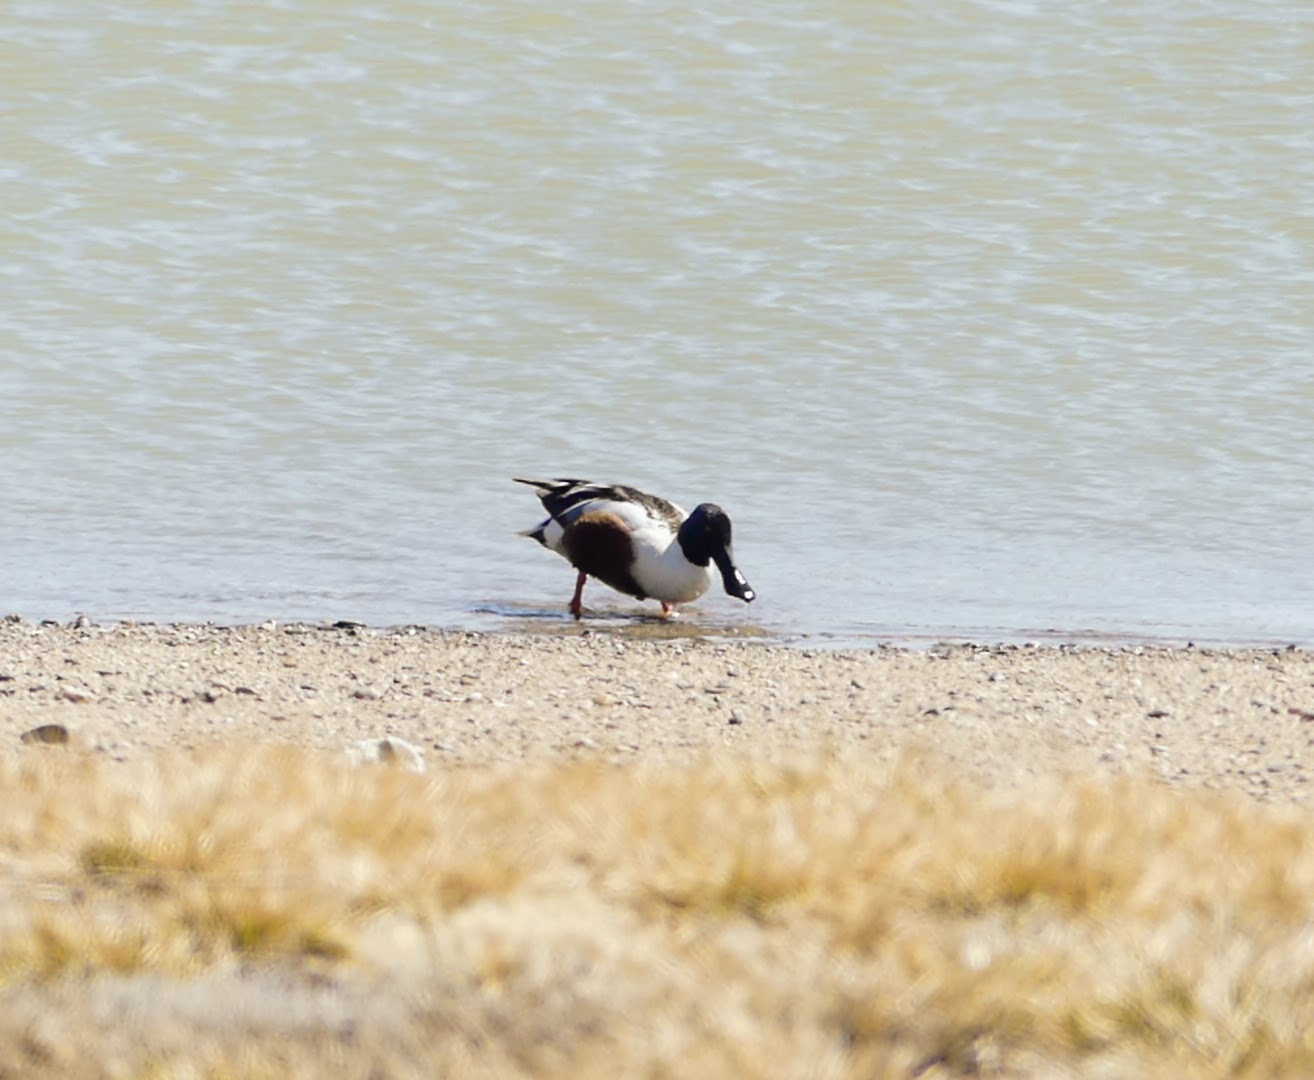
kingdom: Animalia
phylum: Chordata
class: Aves
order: Anseriformes
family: Anatidae
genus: Spatula
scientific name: Spatula clypeata
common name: Northern shoveler
